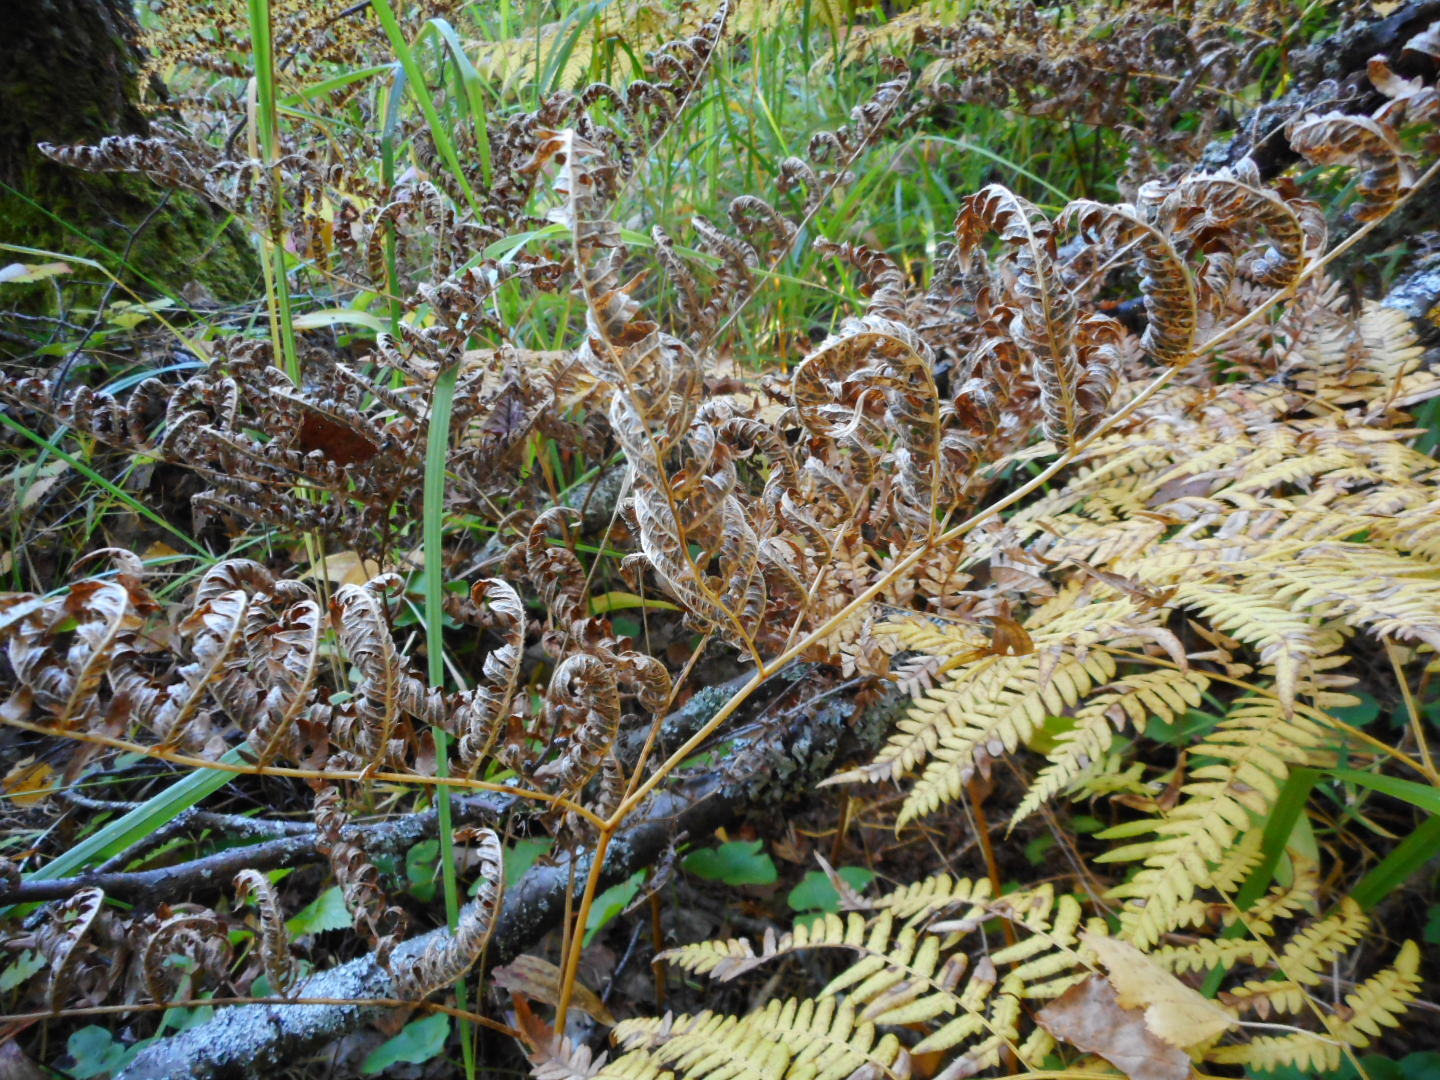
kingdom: Fungi
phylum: Ascomycota
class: Sordariomycetes
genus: Cryptomycina
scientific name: Cryptomycina pteridis
